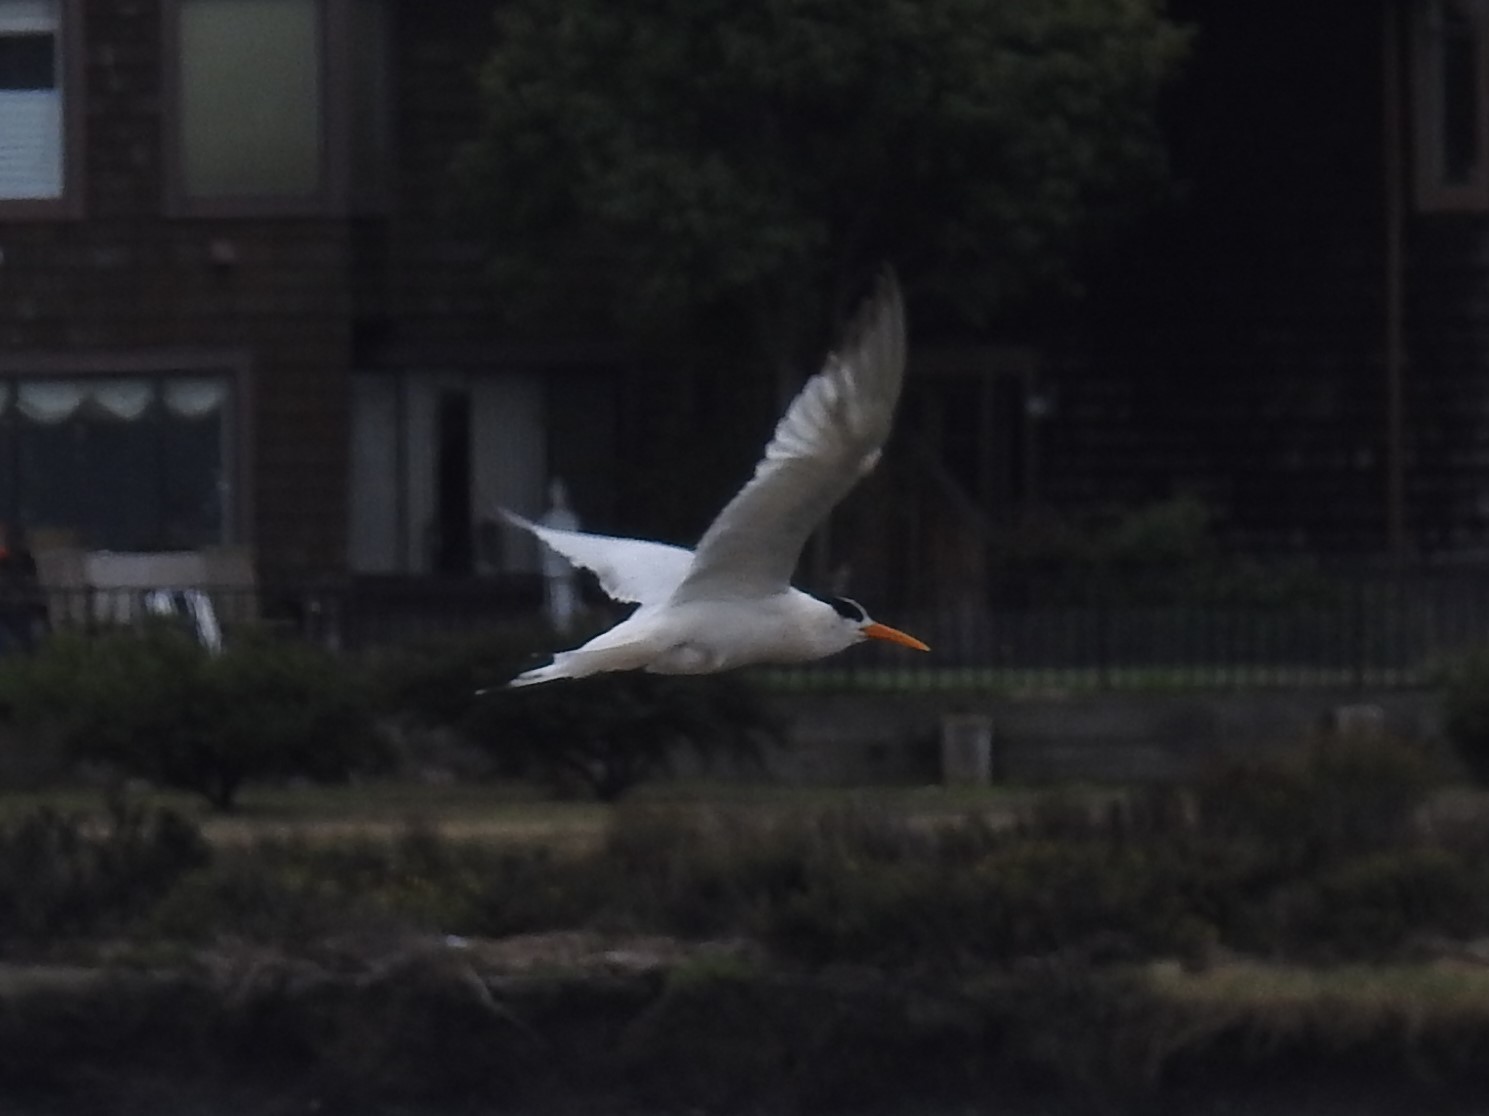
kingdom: Animalia
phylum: Chordata
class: Aves
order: Charadriiformes
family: Laridae
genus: Thalasseus
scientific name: Thalasseus elegans
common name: Elegant tern
